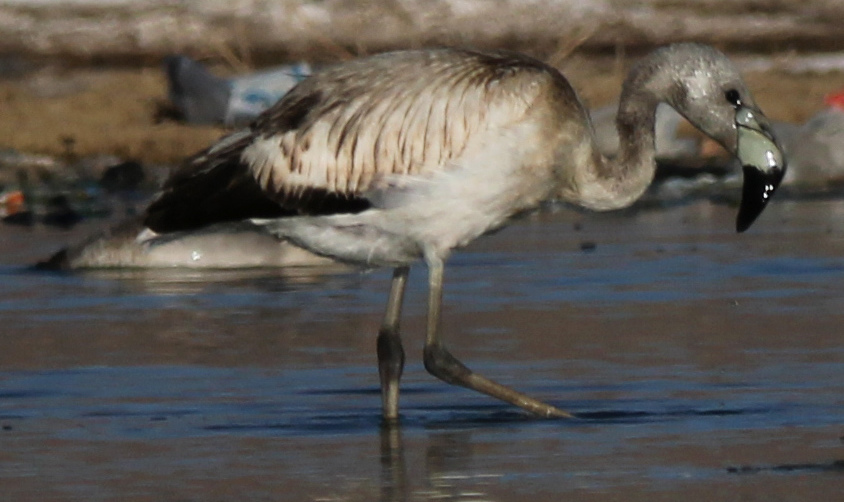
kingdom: Animalia
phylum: Chordata
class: Aves
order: Phoenicopteriformes
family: Phoenicopteridae
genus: Phoenicoparrus
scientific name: Phoenicoparrus andinus
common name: Andean flamingo
